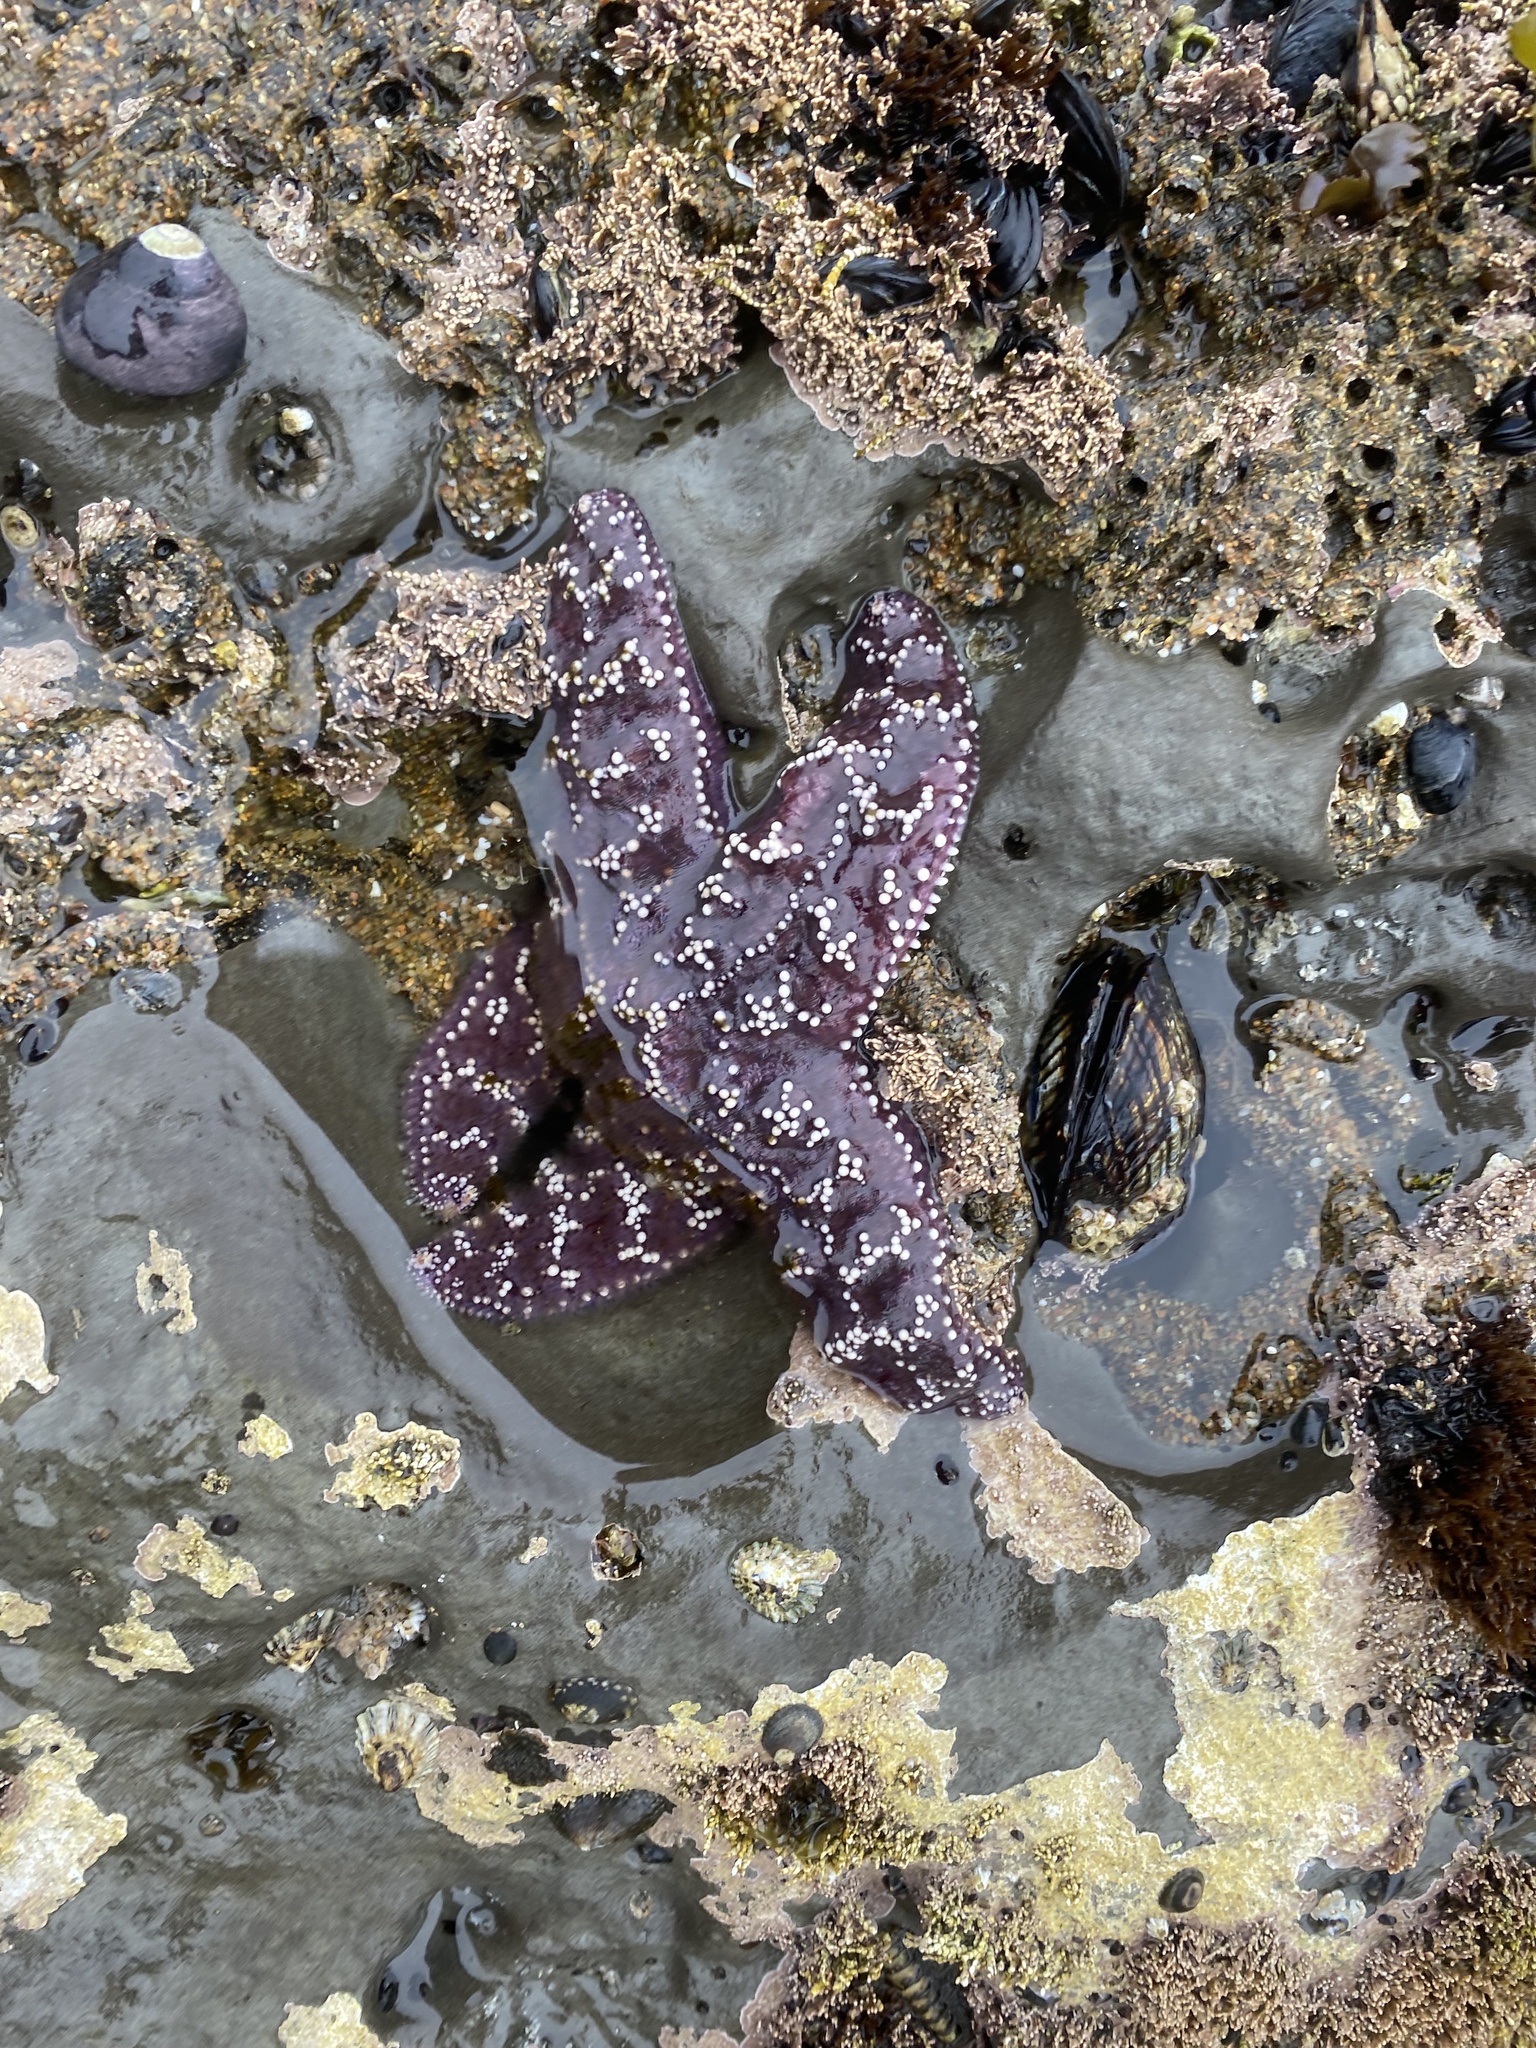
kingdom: Animalia
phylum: Echinodermata
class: Asteroidea
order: Forcipulatida
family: Asteriidae
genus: Pisaster
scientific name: Pisaster ochraceus
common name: Ochre stars
